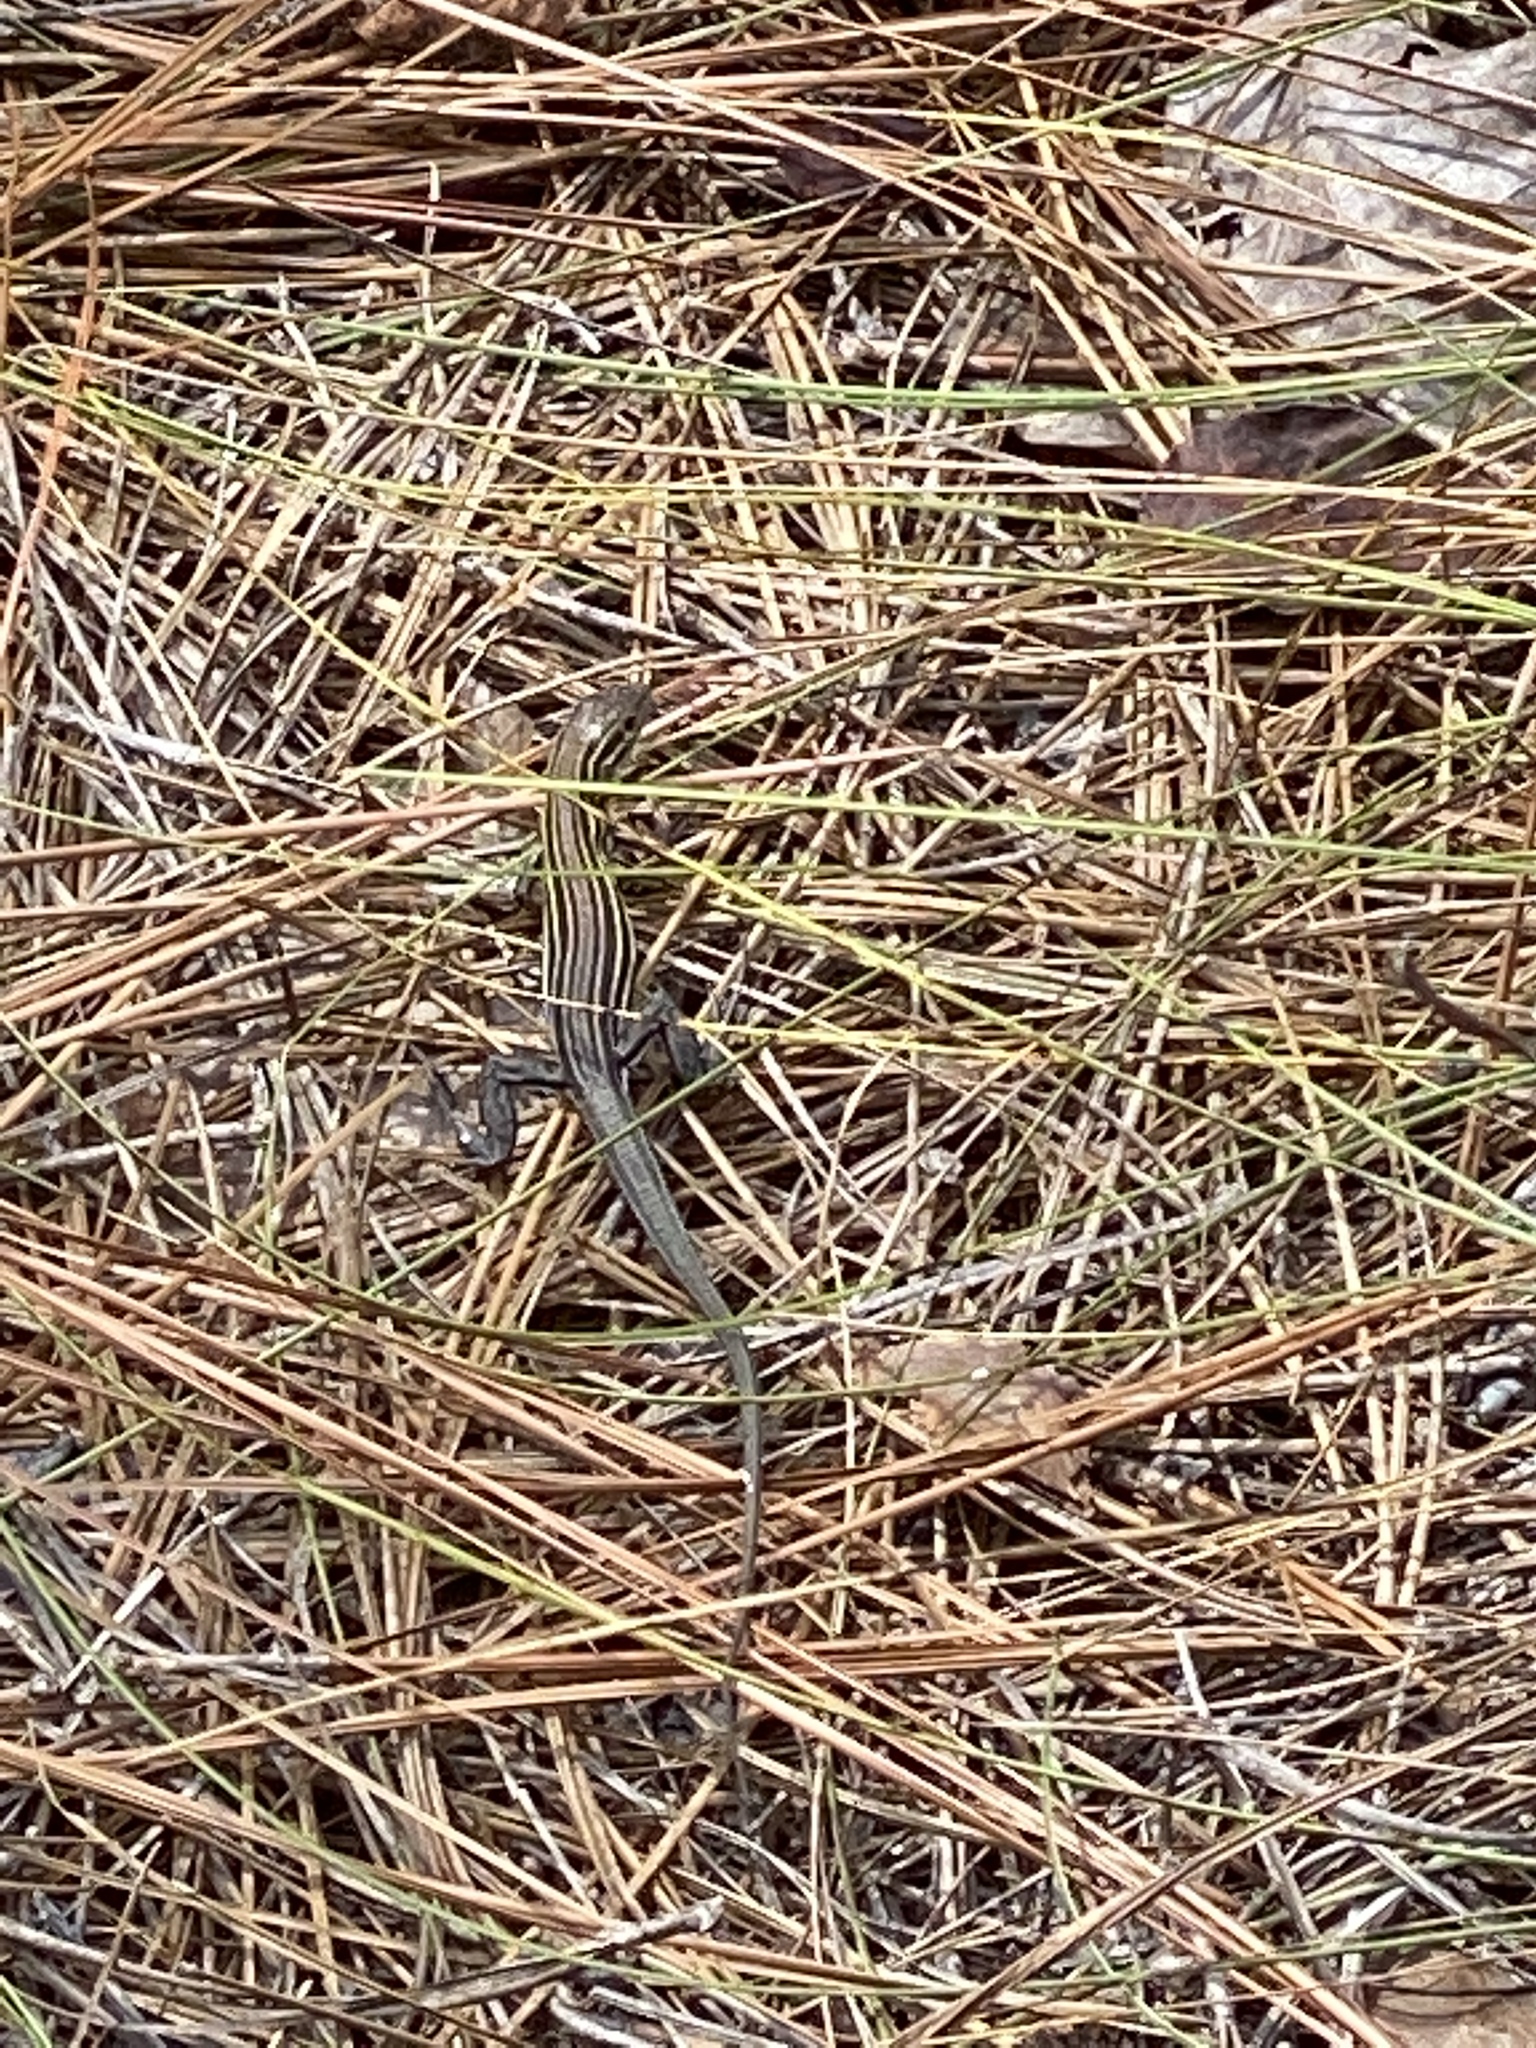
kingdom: Animalia
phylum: Chordata
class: Squamata
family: Teiidae
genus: Aspidoscelis
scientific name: Aspidoscelis sexlineatus
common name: Six-lined racerunner
